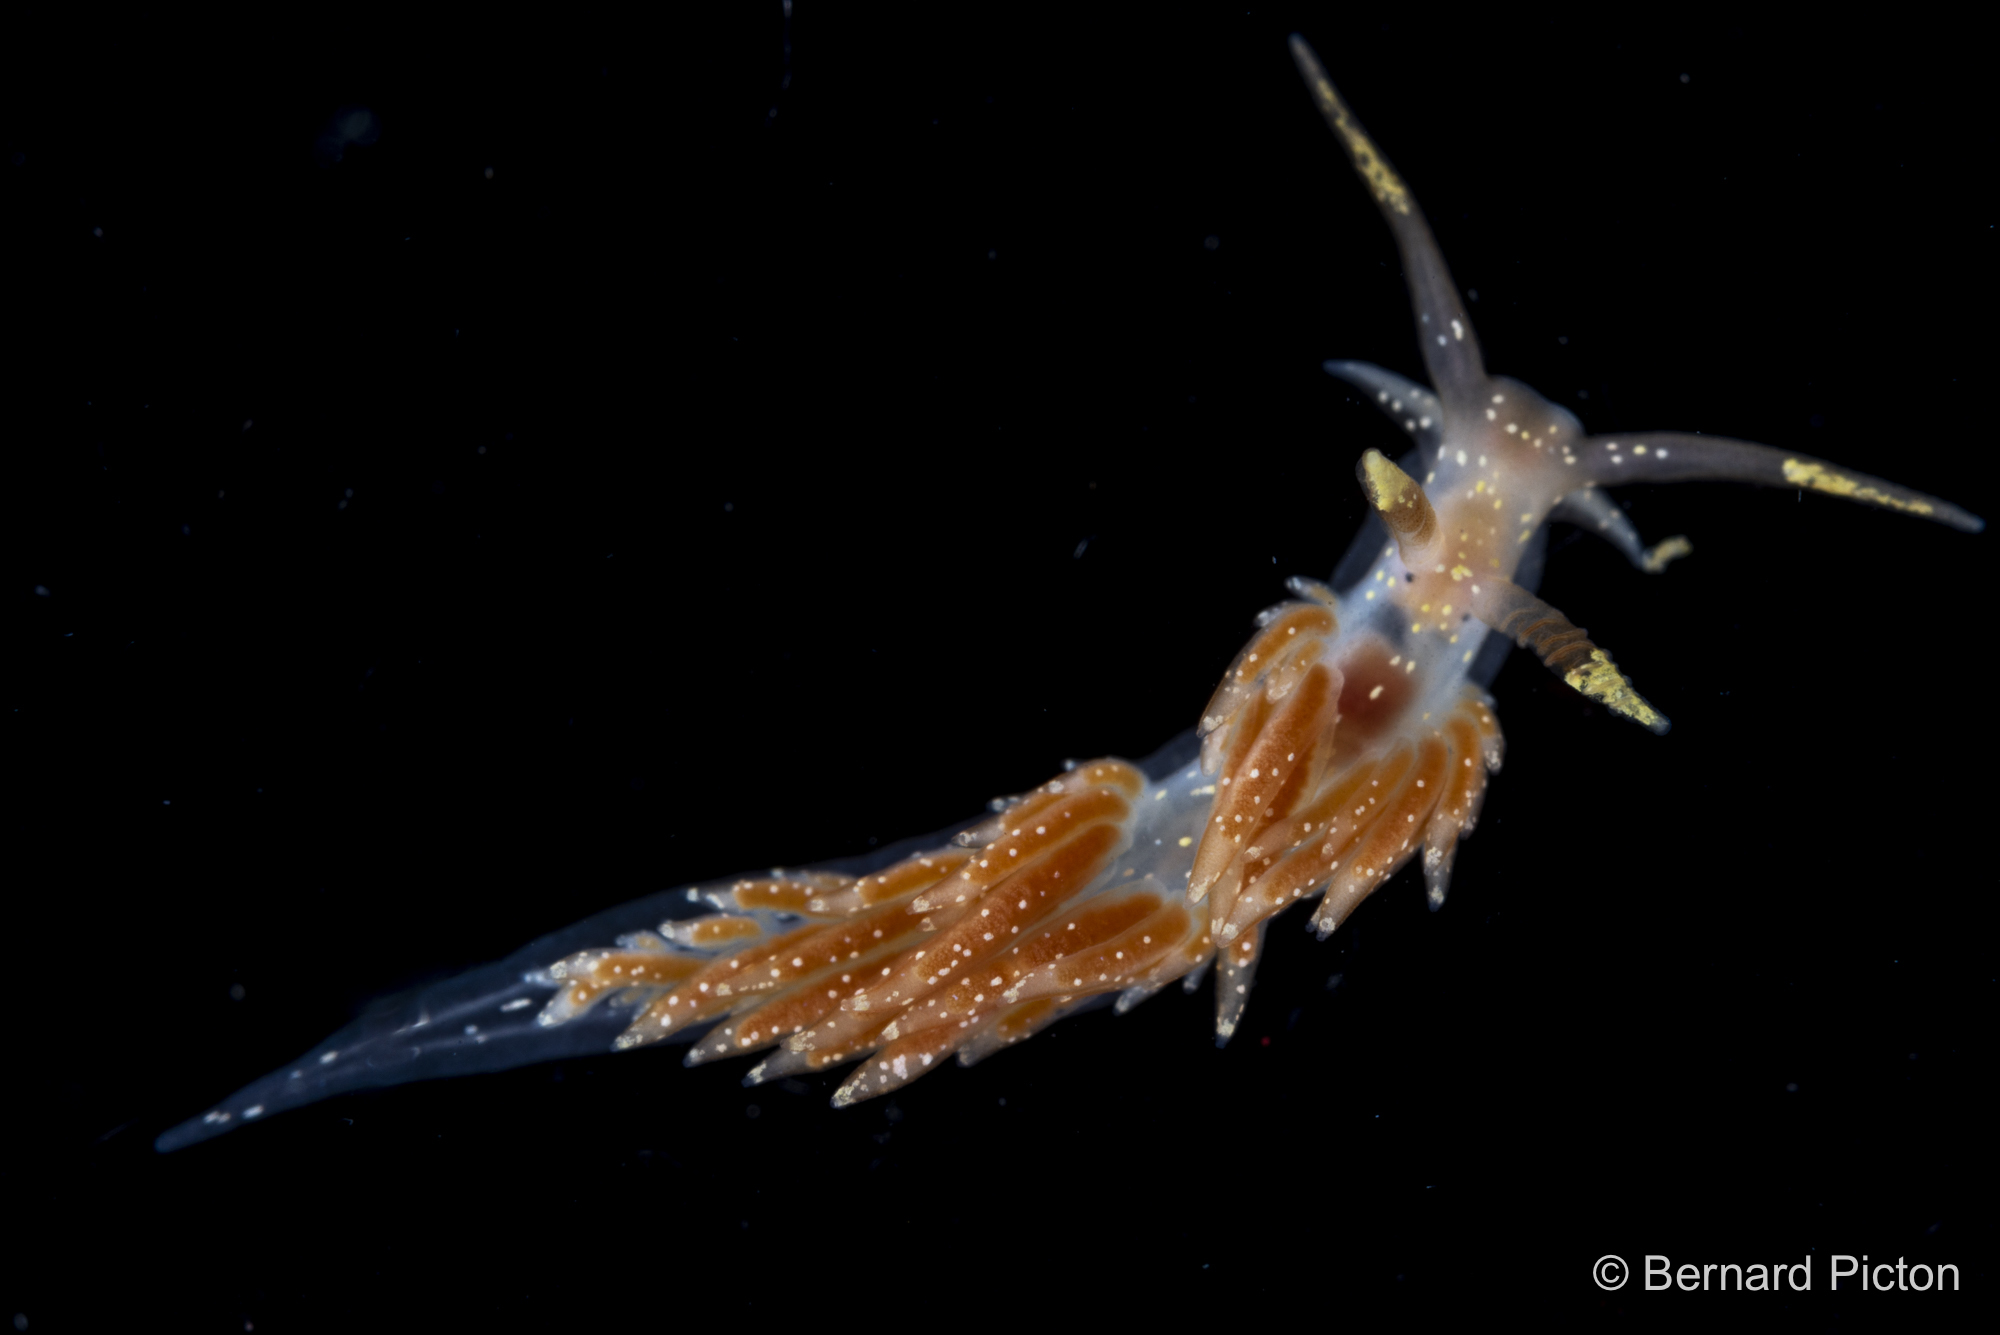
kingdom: Animalia
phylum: Mollusca
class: Gastropoda
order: Nudibranchia
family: Facelinidae
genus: Facelina
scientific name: Facelina annulicornis
